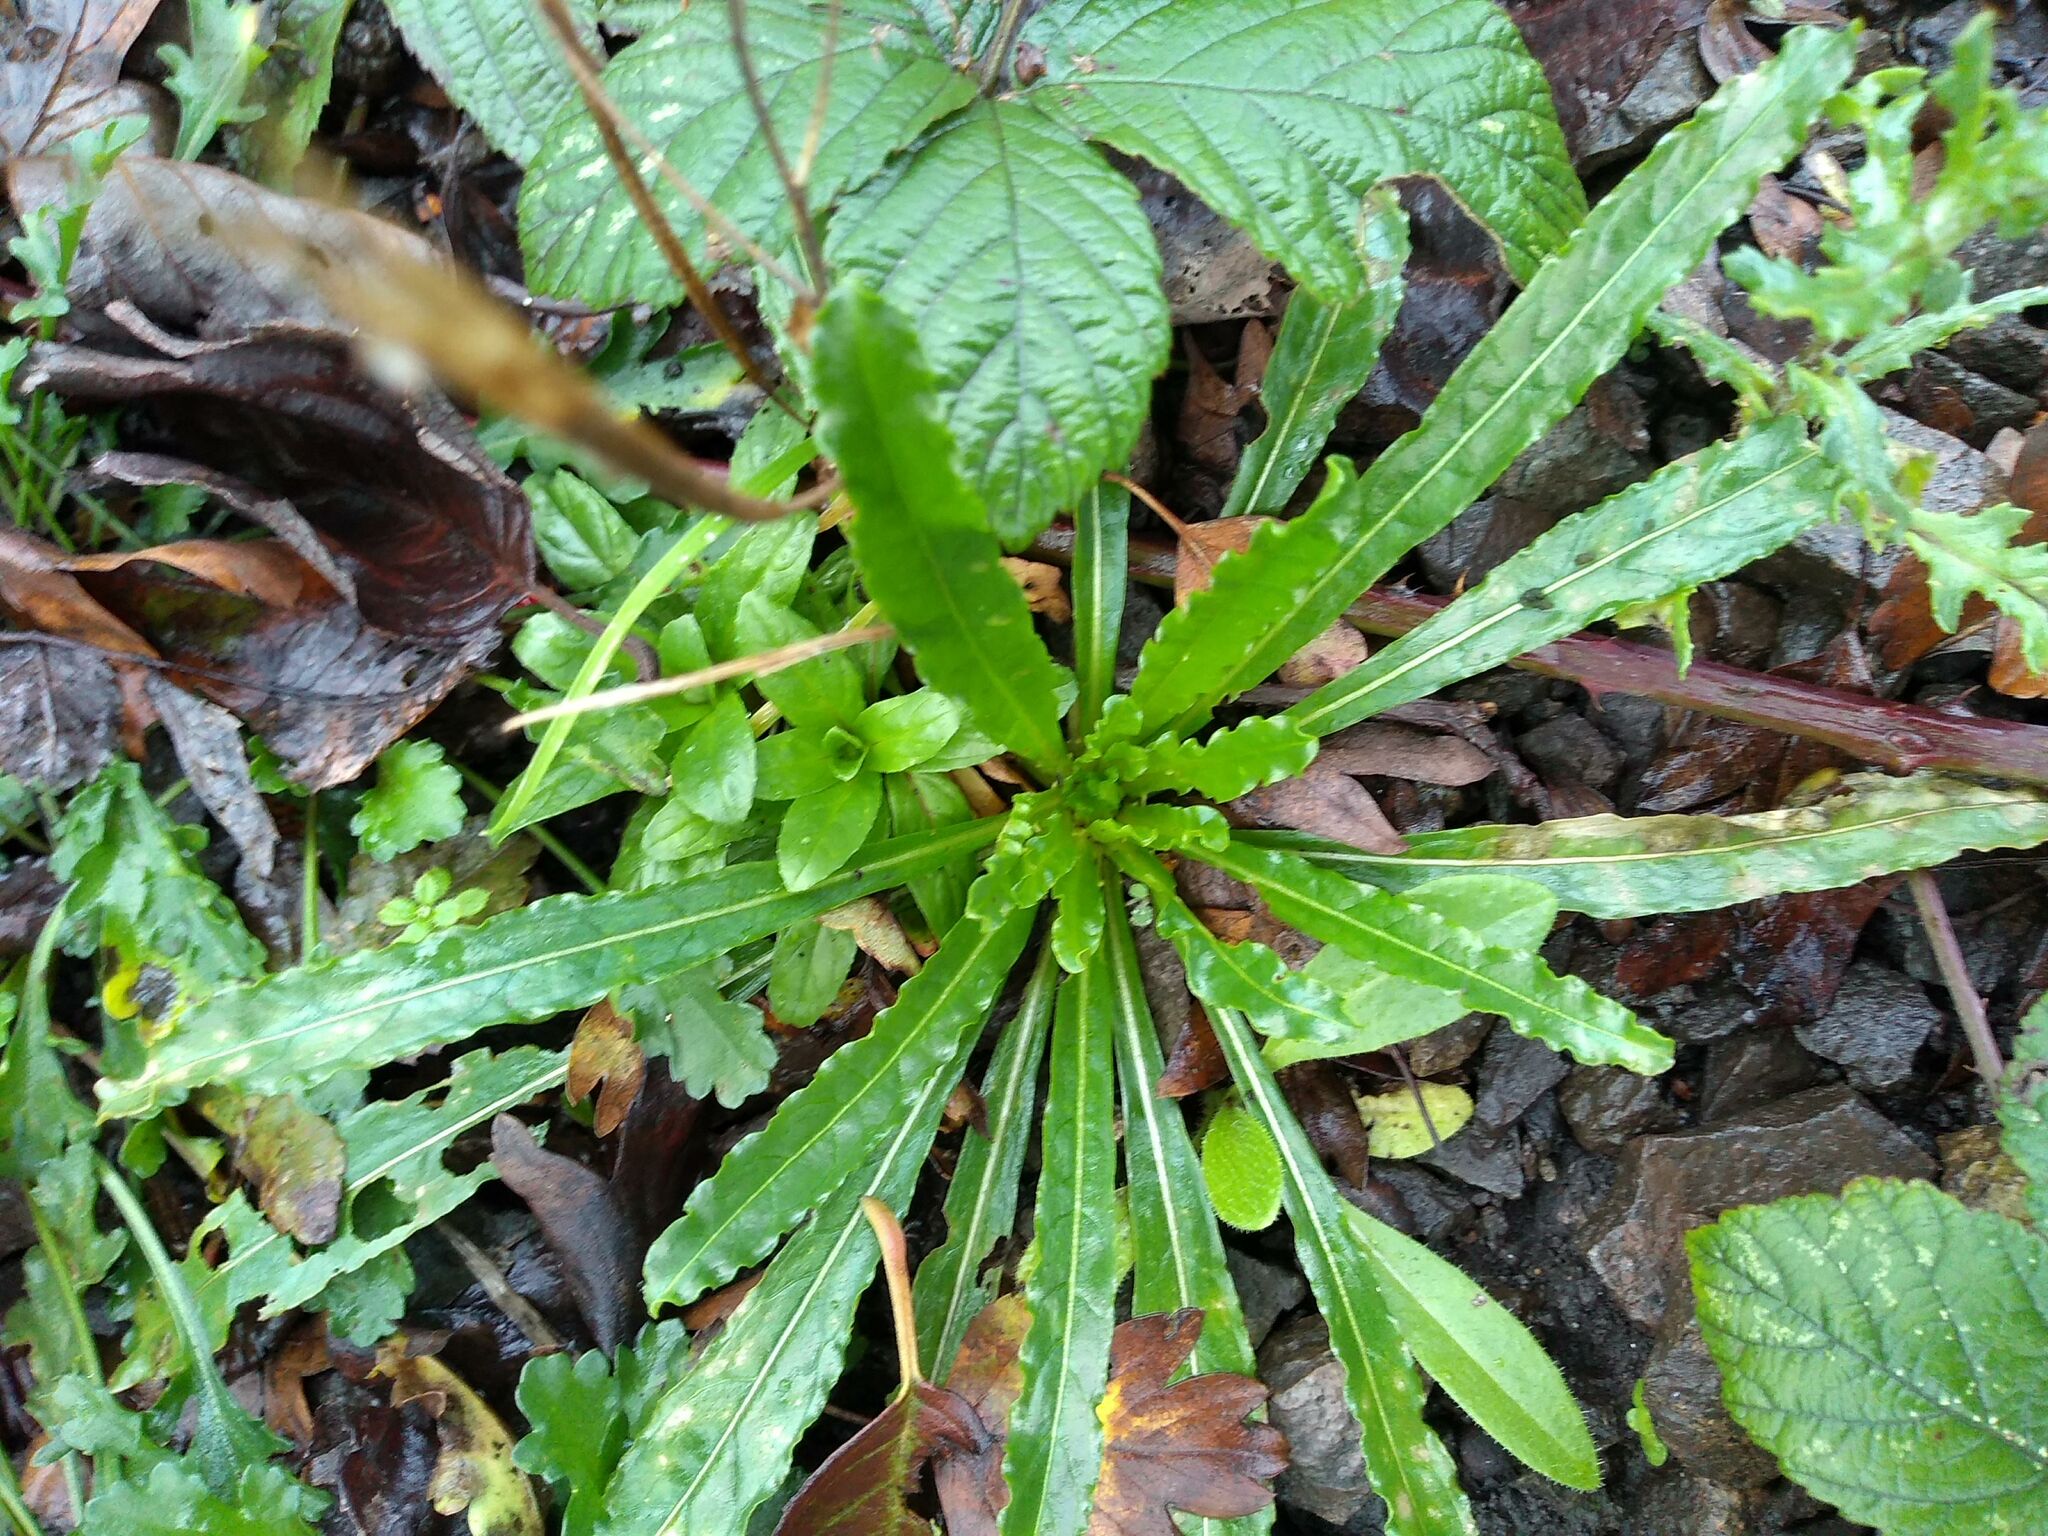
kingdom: Plantae
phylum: Tracheophyta
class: Magnoliopsida
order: Brassicales
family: Resedaceae
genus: Reseda
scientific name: Reseda luteola
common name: Weld
